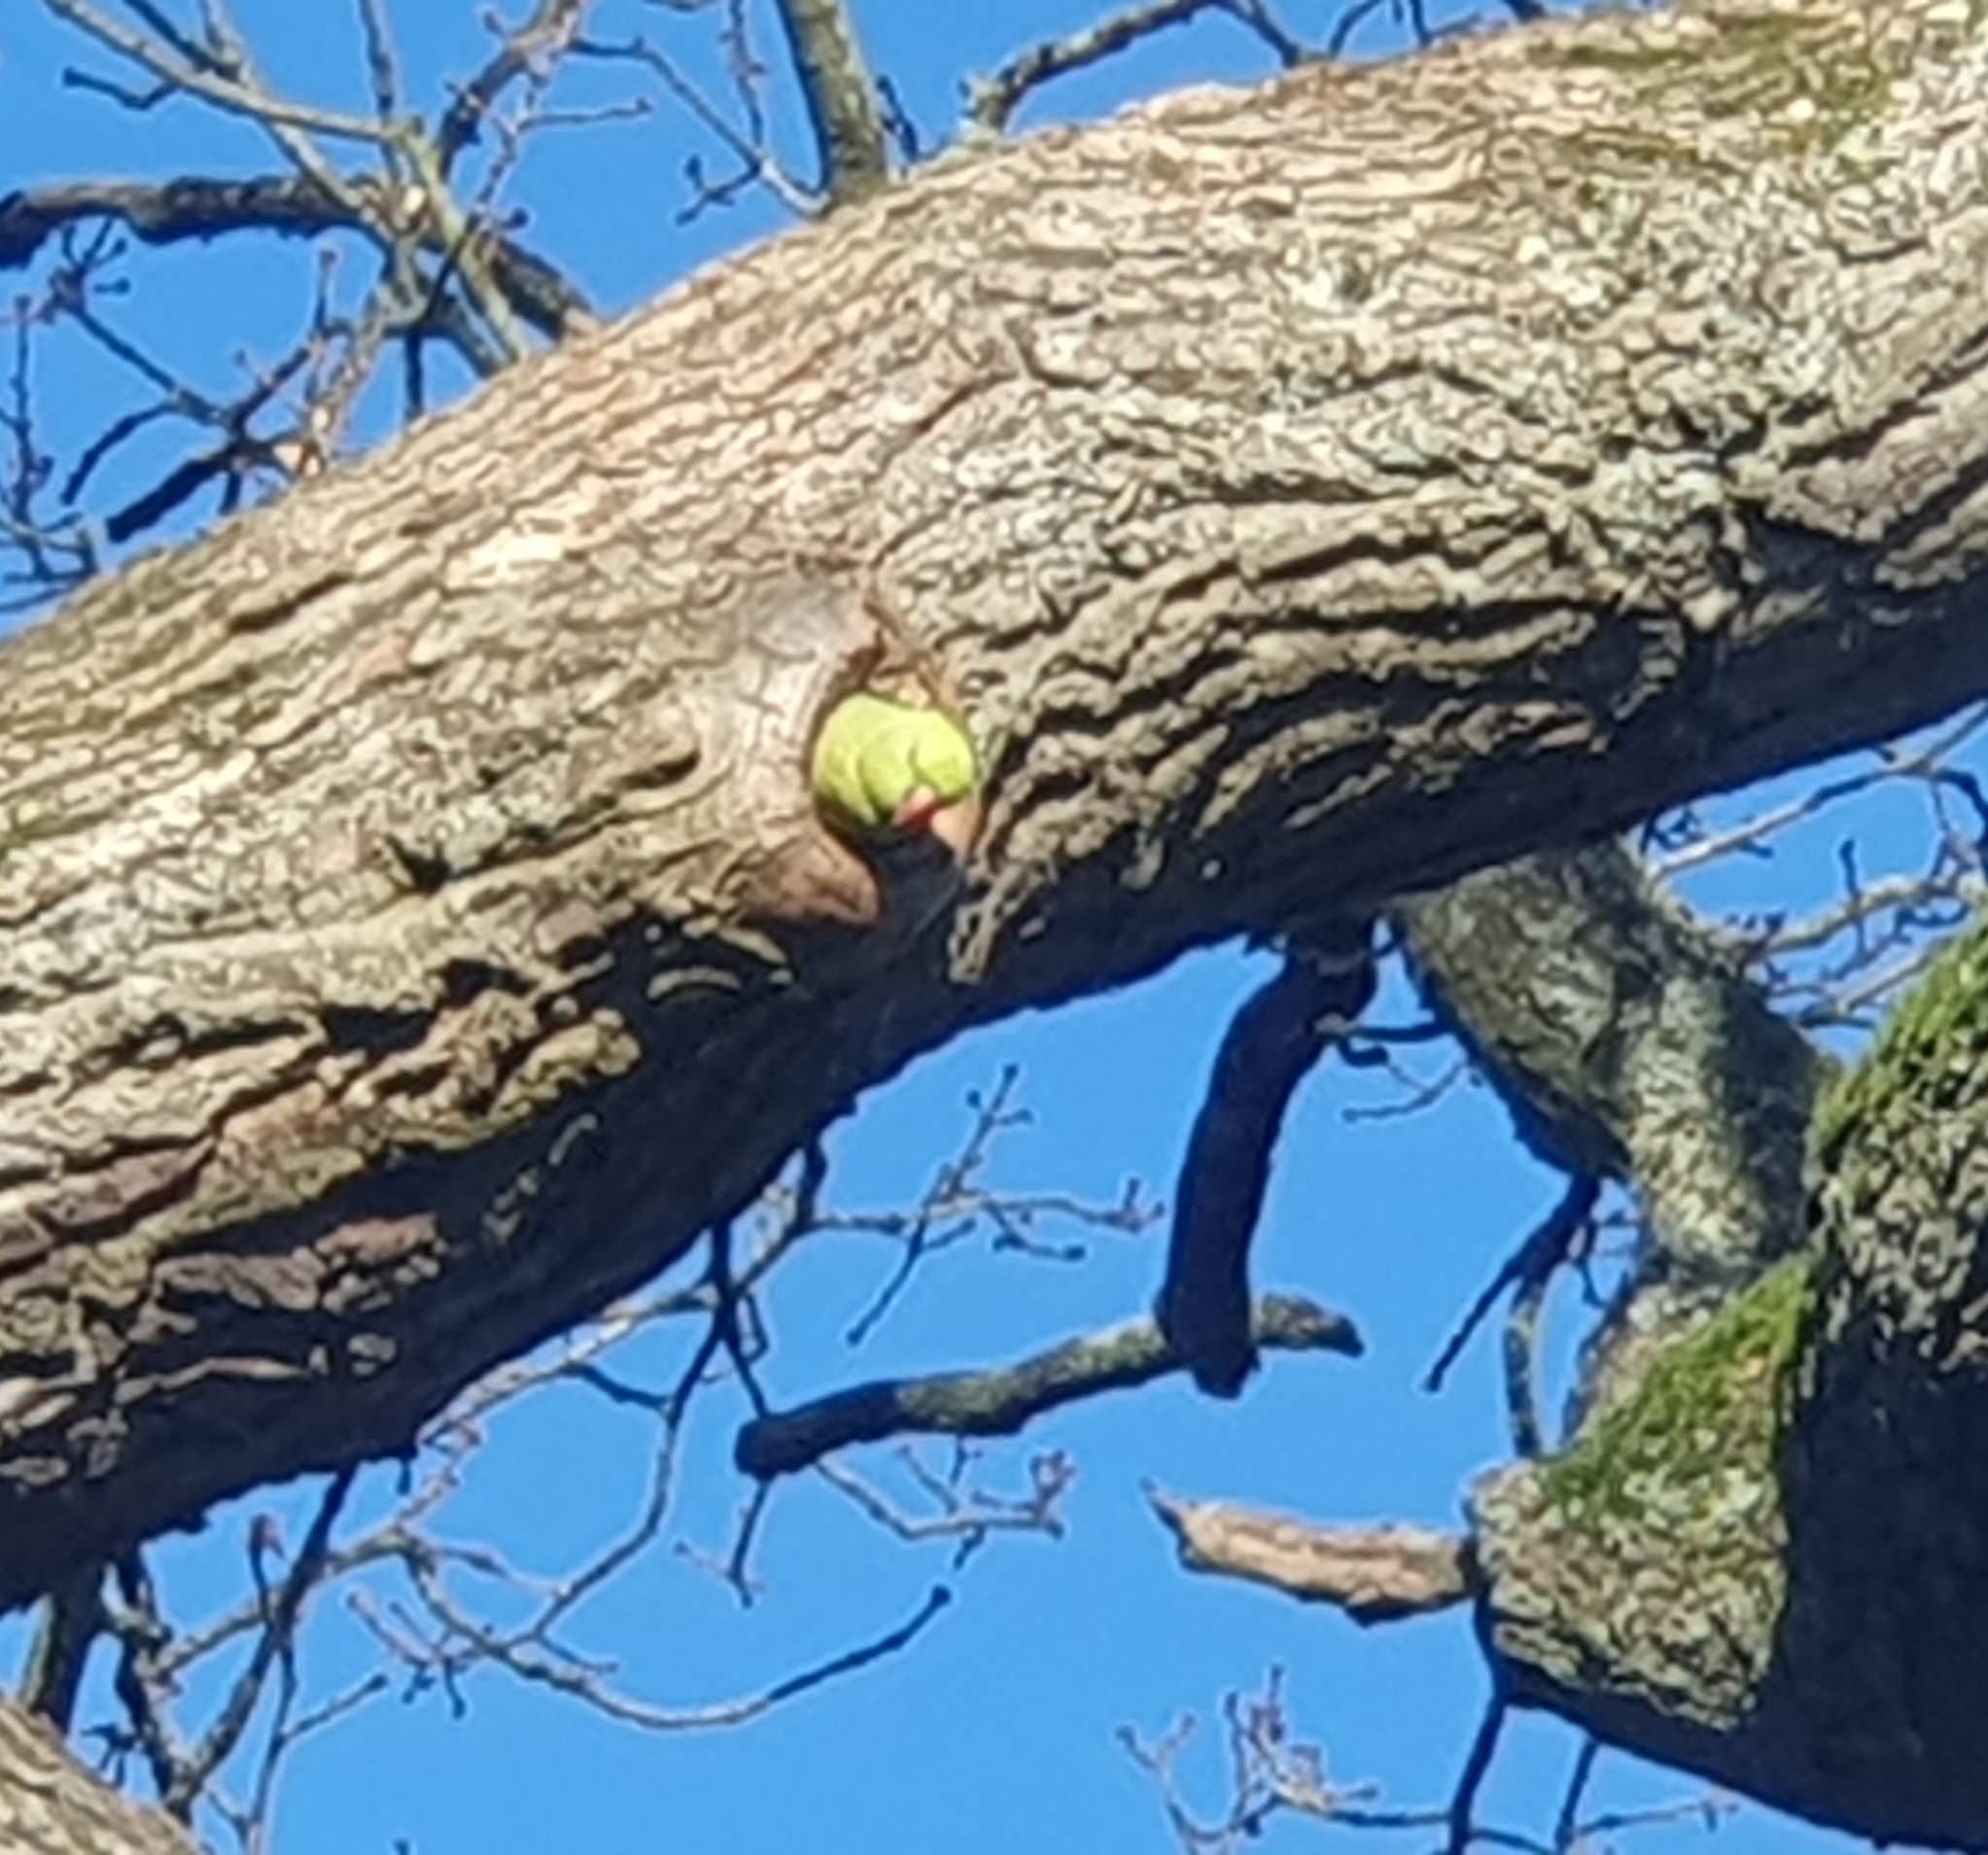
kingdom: Animalia
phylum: Chordata
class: Aves
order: Psittaciformes
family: Psittacidae
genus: Psittacula
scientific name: Psittacula krameri
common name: Rose-ringed parakeet
